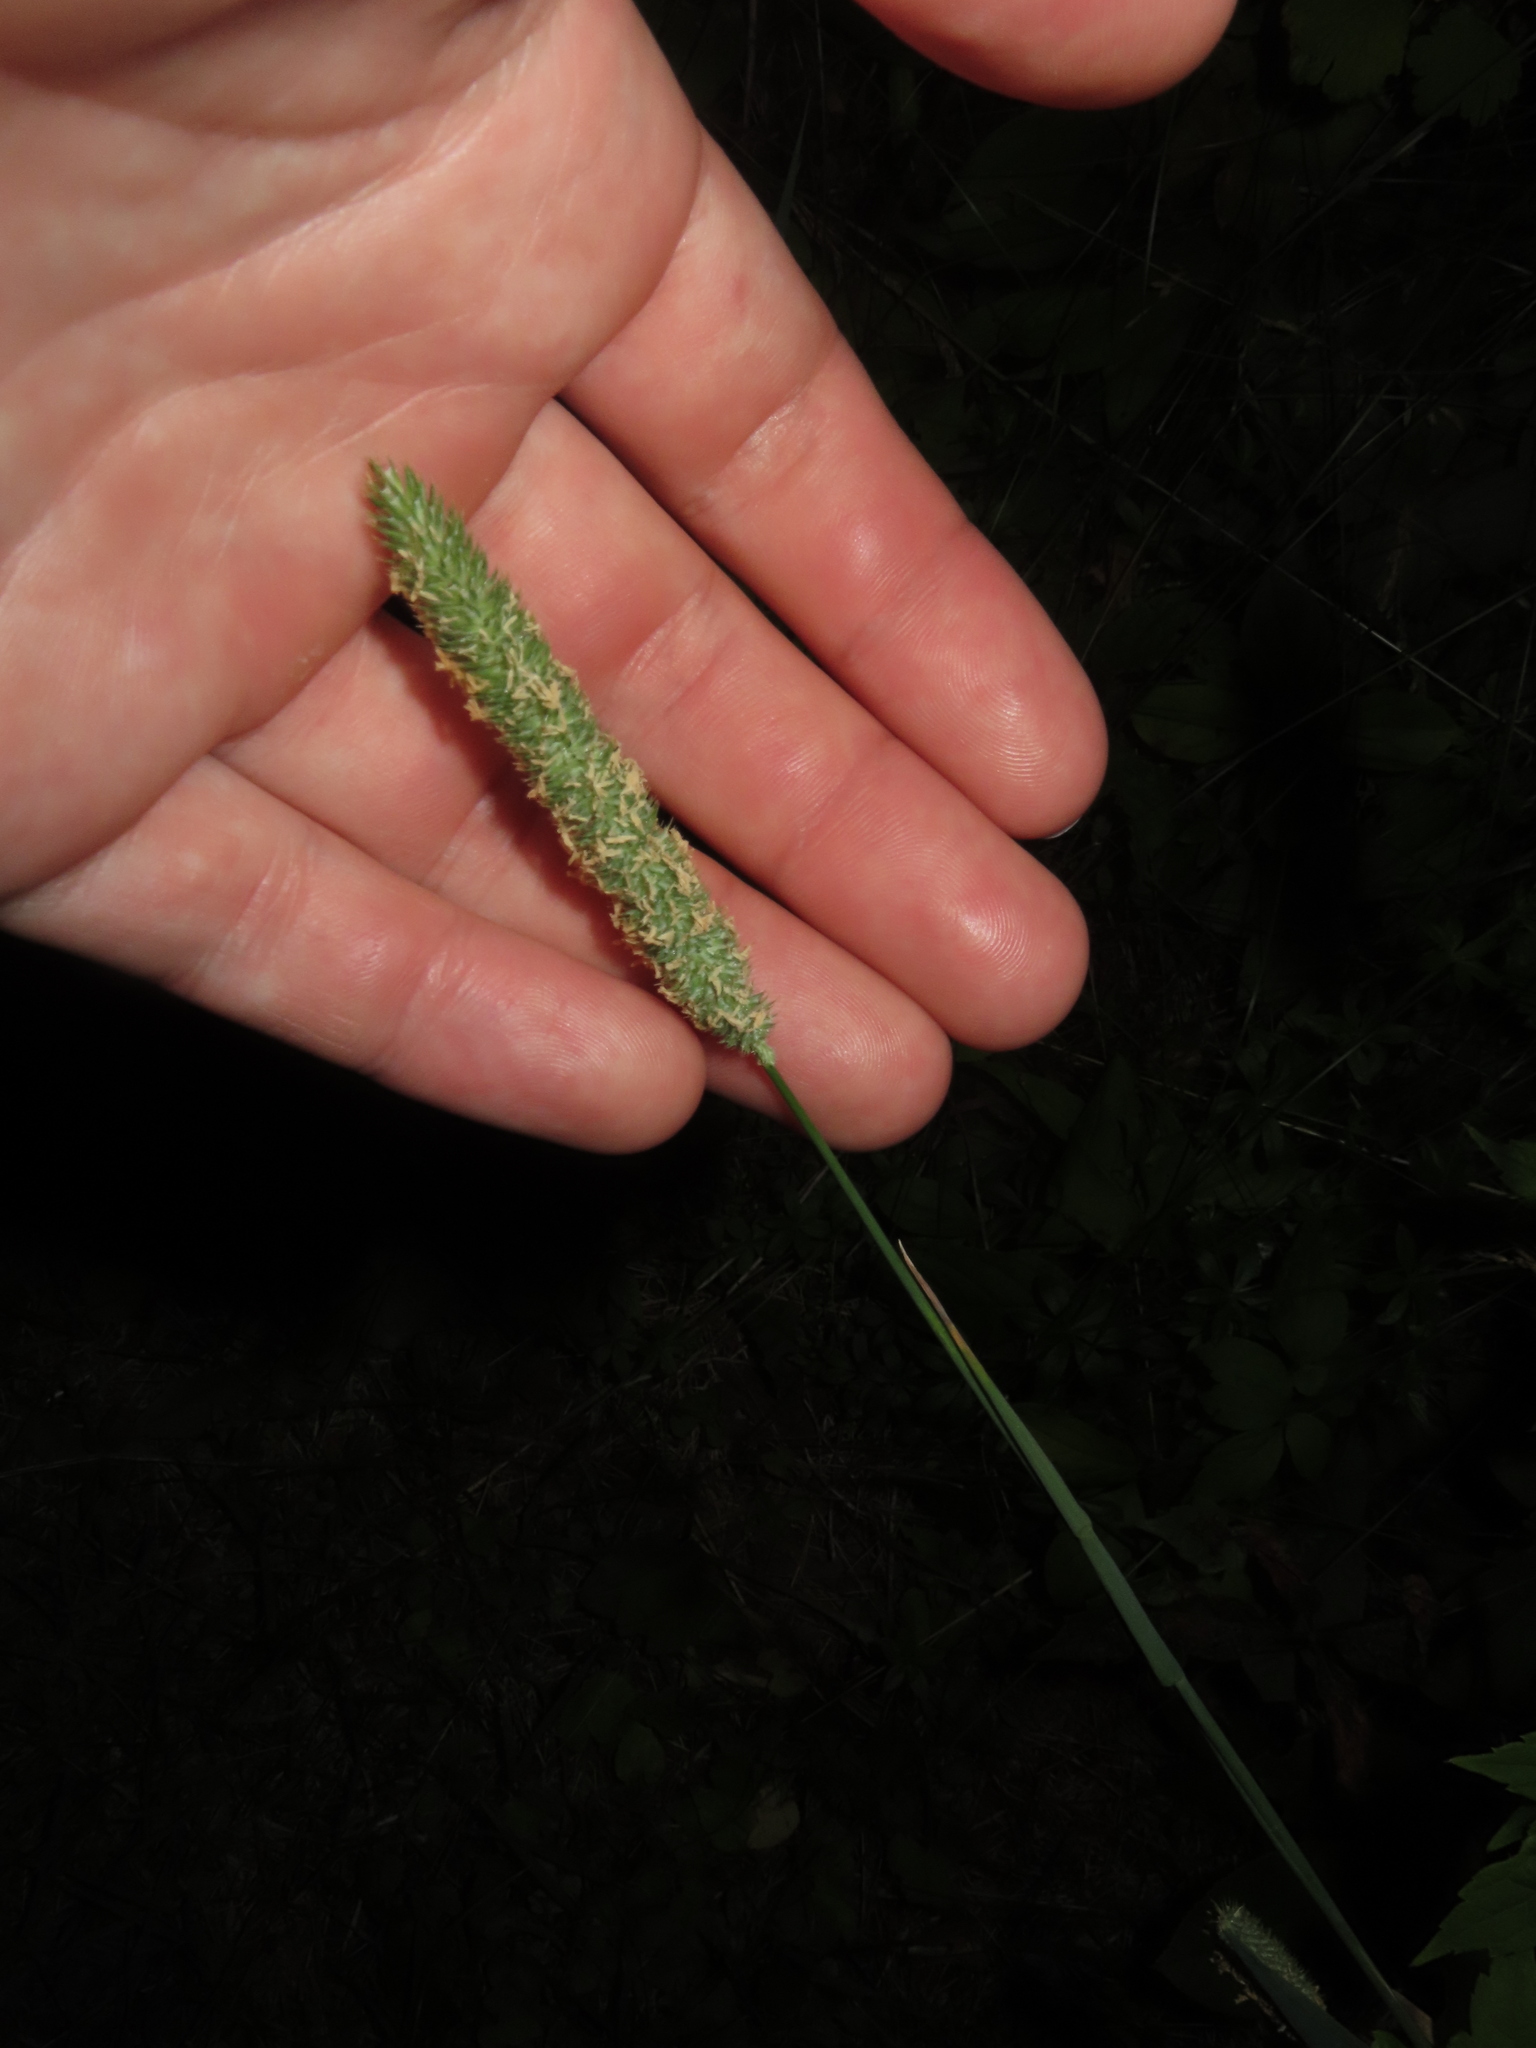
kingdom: Plantae
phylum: Tracheophyta
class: Liliopsida
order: Poales
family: Poaceae
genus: Phleum
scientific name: Phleum pratense
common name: Timothy grass
